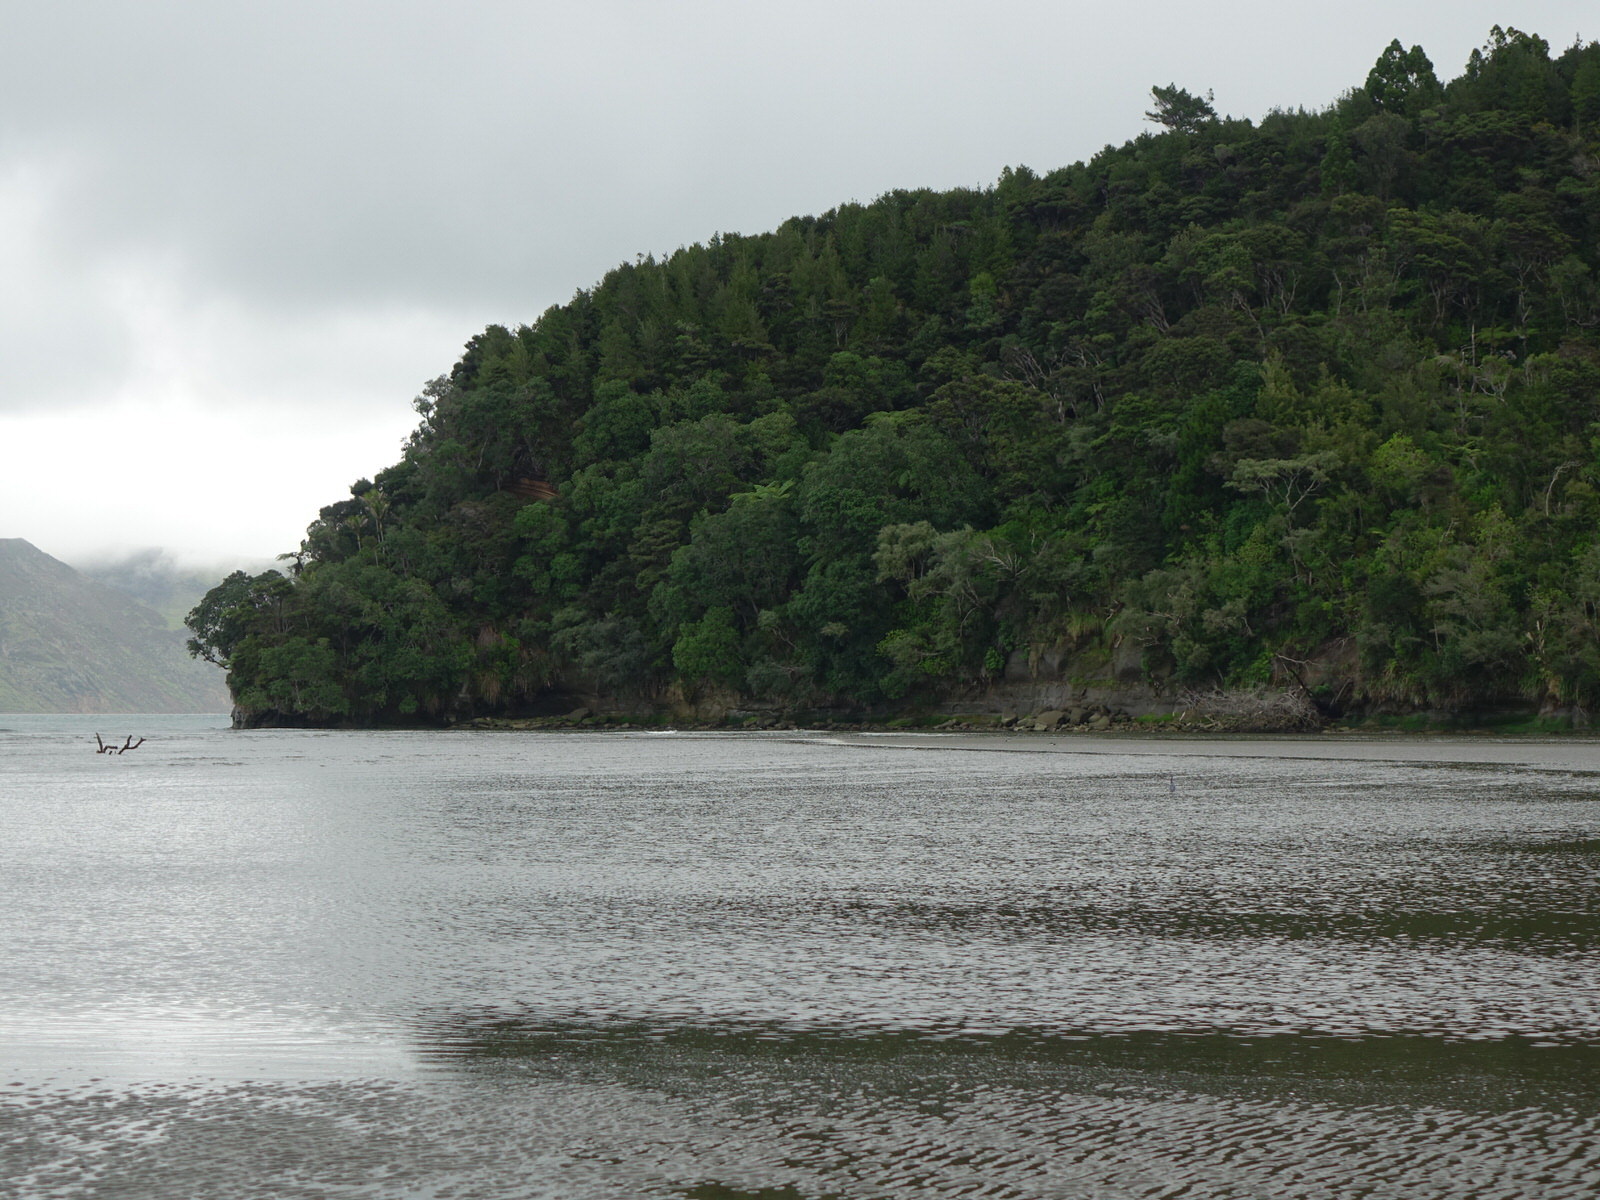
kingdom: Animalia
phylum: Chordata
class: Aves
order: Pelecaniformes
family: Ardeidae
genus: Egretta
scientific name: Egretta sacra
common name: Pacific reef heron
